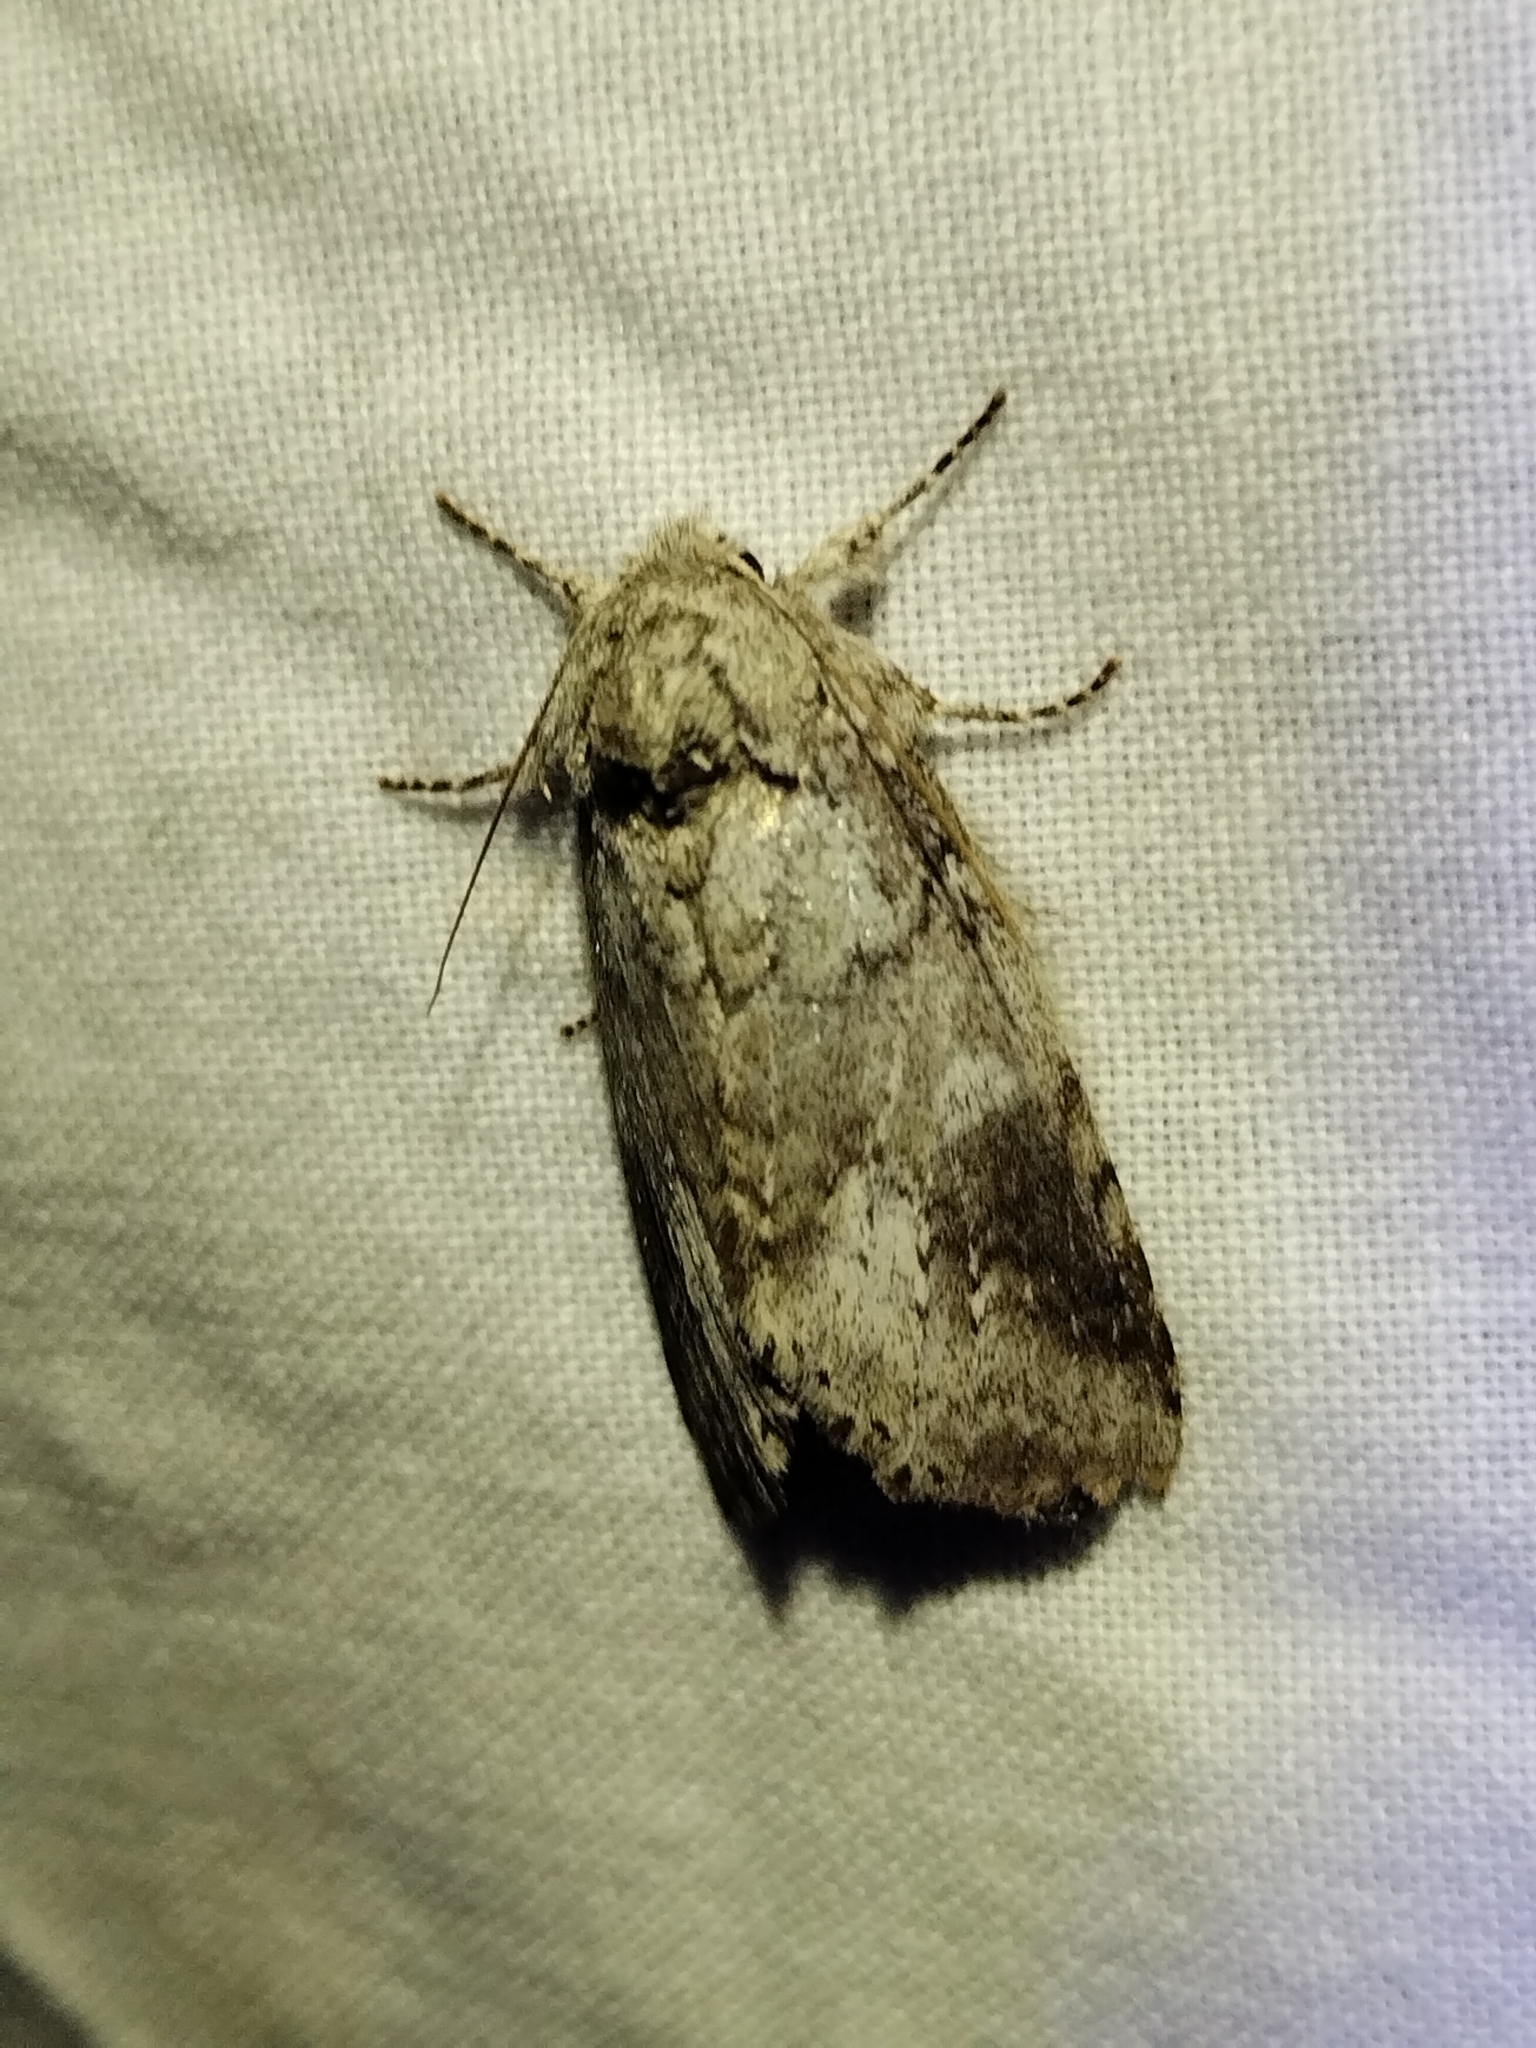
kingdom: Animalia
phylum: Arthropoda
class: Insecta
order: Lepidoptera
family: Notodontidae
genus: Lochmaeus
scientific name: Lochmaeus manteo
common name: Variable oakleaf caterpillar moth
